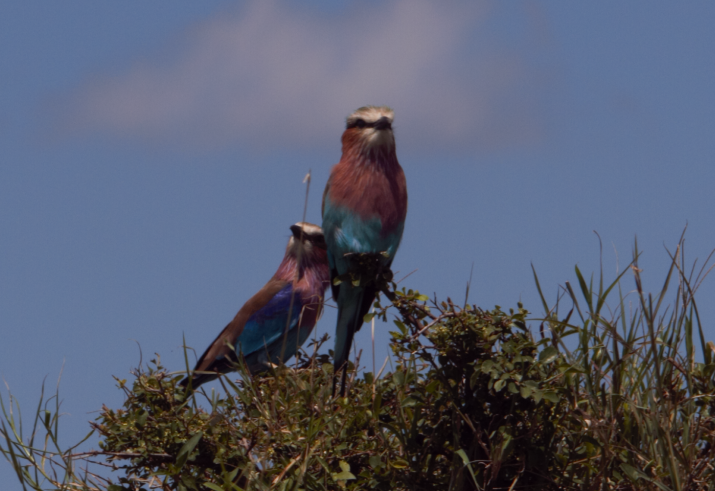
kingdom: Animalia
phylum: Chordata
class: Aves
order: Coraciiformes
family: Coraciidae
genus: Coracias
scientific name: Coracias caudatus
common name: Lilac-breasted roller
